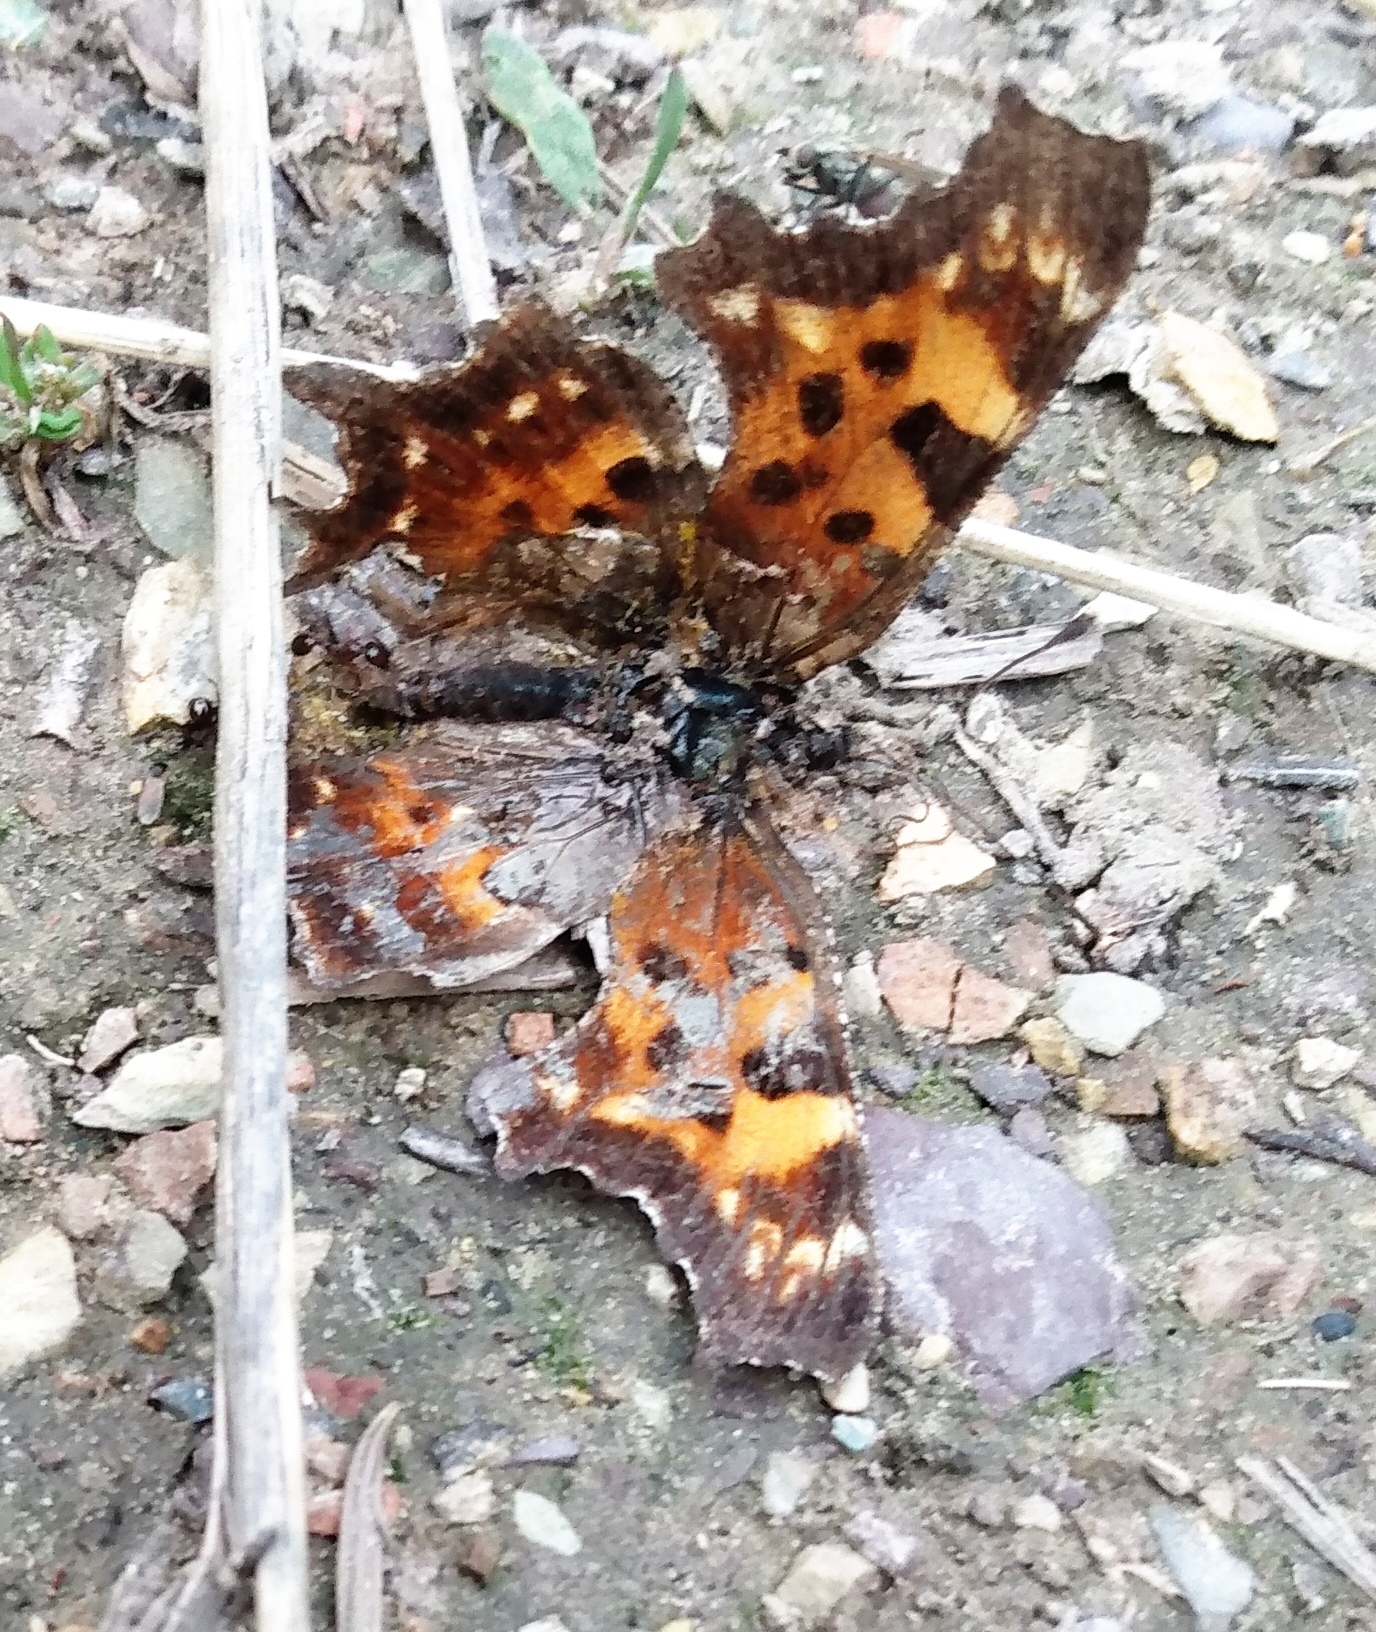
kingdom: Animalia
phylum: Arthropoda
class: Insecta
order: Lepidoptera
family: Nymphalidae
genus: Polygonia
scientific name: Polygonia faunus
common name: Green comma
